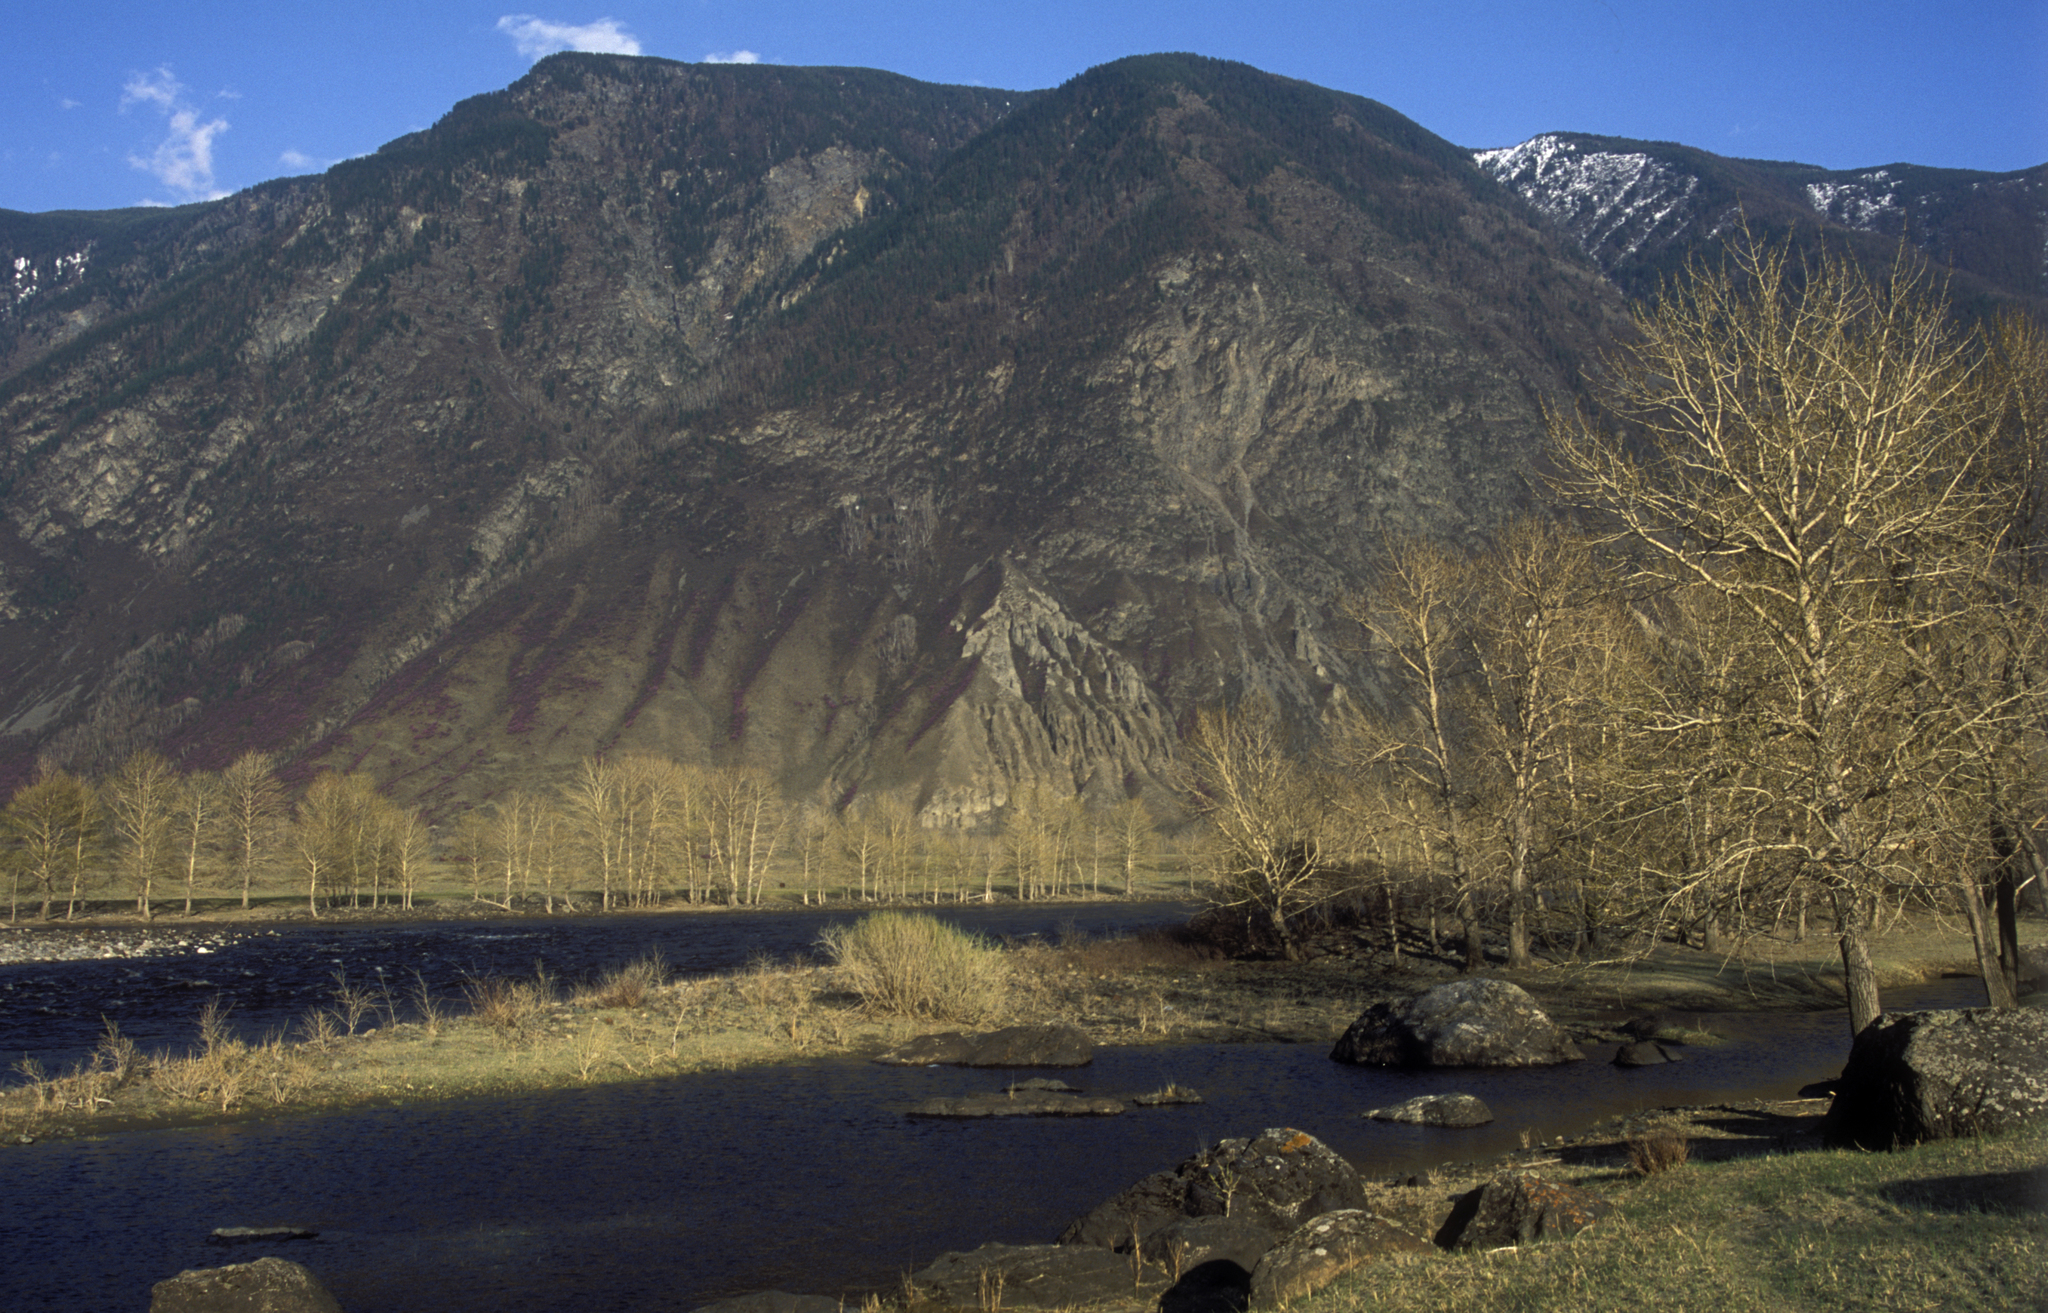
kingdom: Plantae
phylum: Tracheophyta
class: Magnoliopsida
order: Malpighiales
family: Salicaceae
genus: Populus
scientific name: Populus laurifolia
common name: Laurel-leaf poplar
